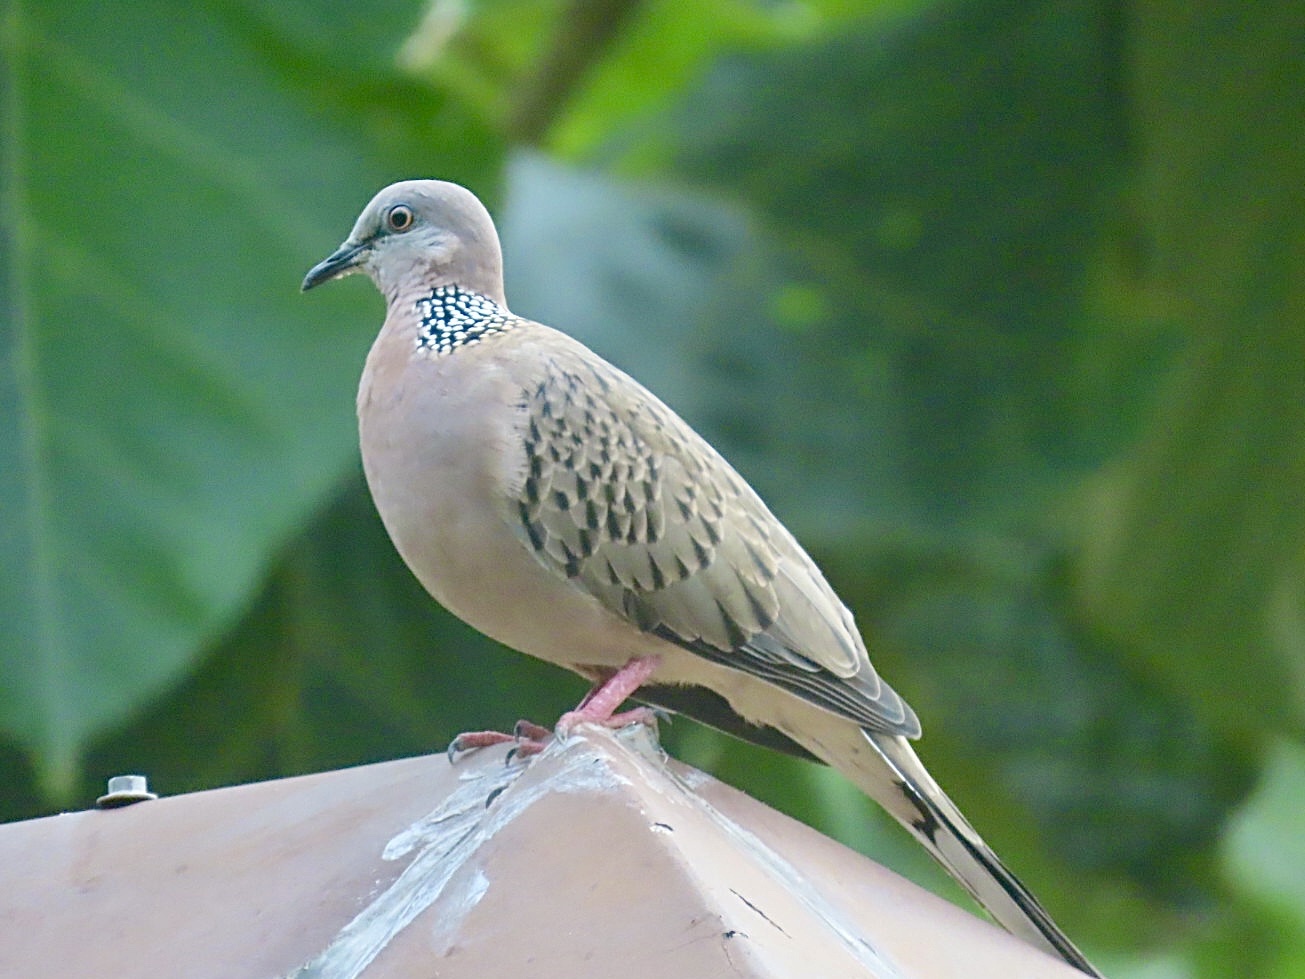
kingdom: Animalia
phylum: Chordata
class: Aves
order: Columbiformes
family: Columbidae
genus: Spilopelia
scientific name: Spilopelia chinensis
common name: Spotted dove
